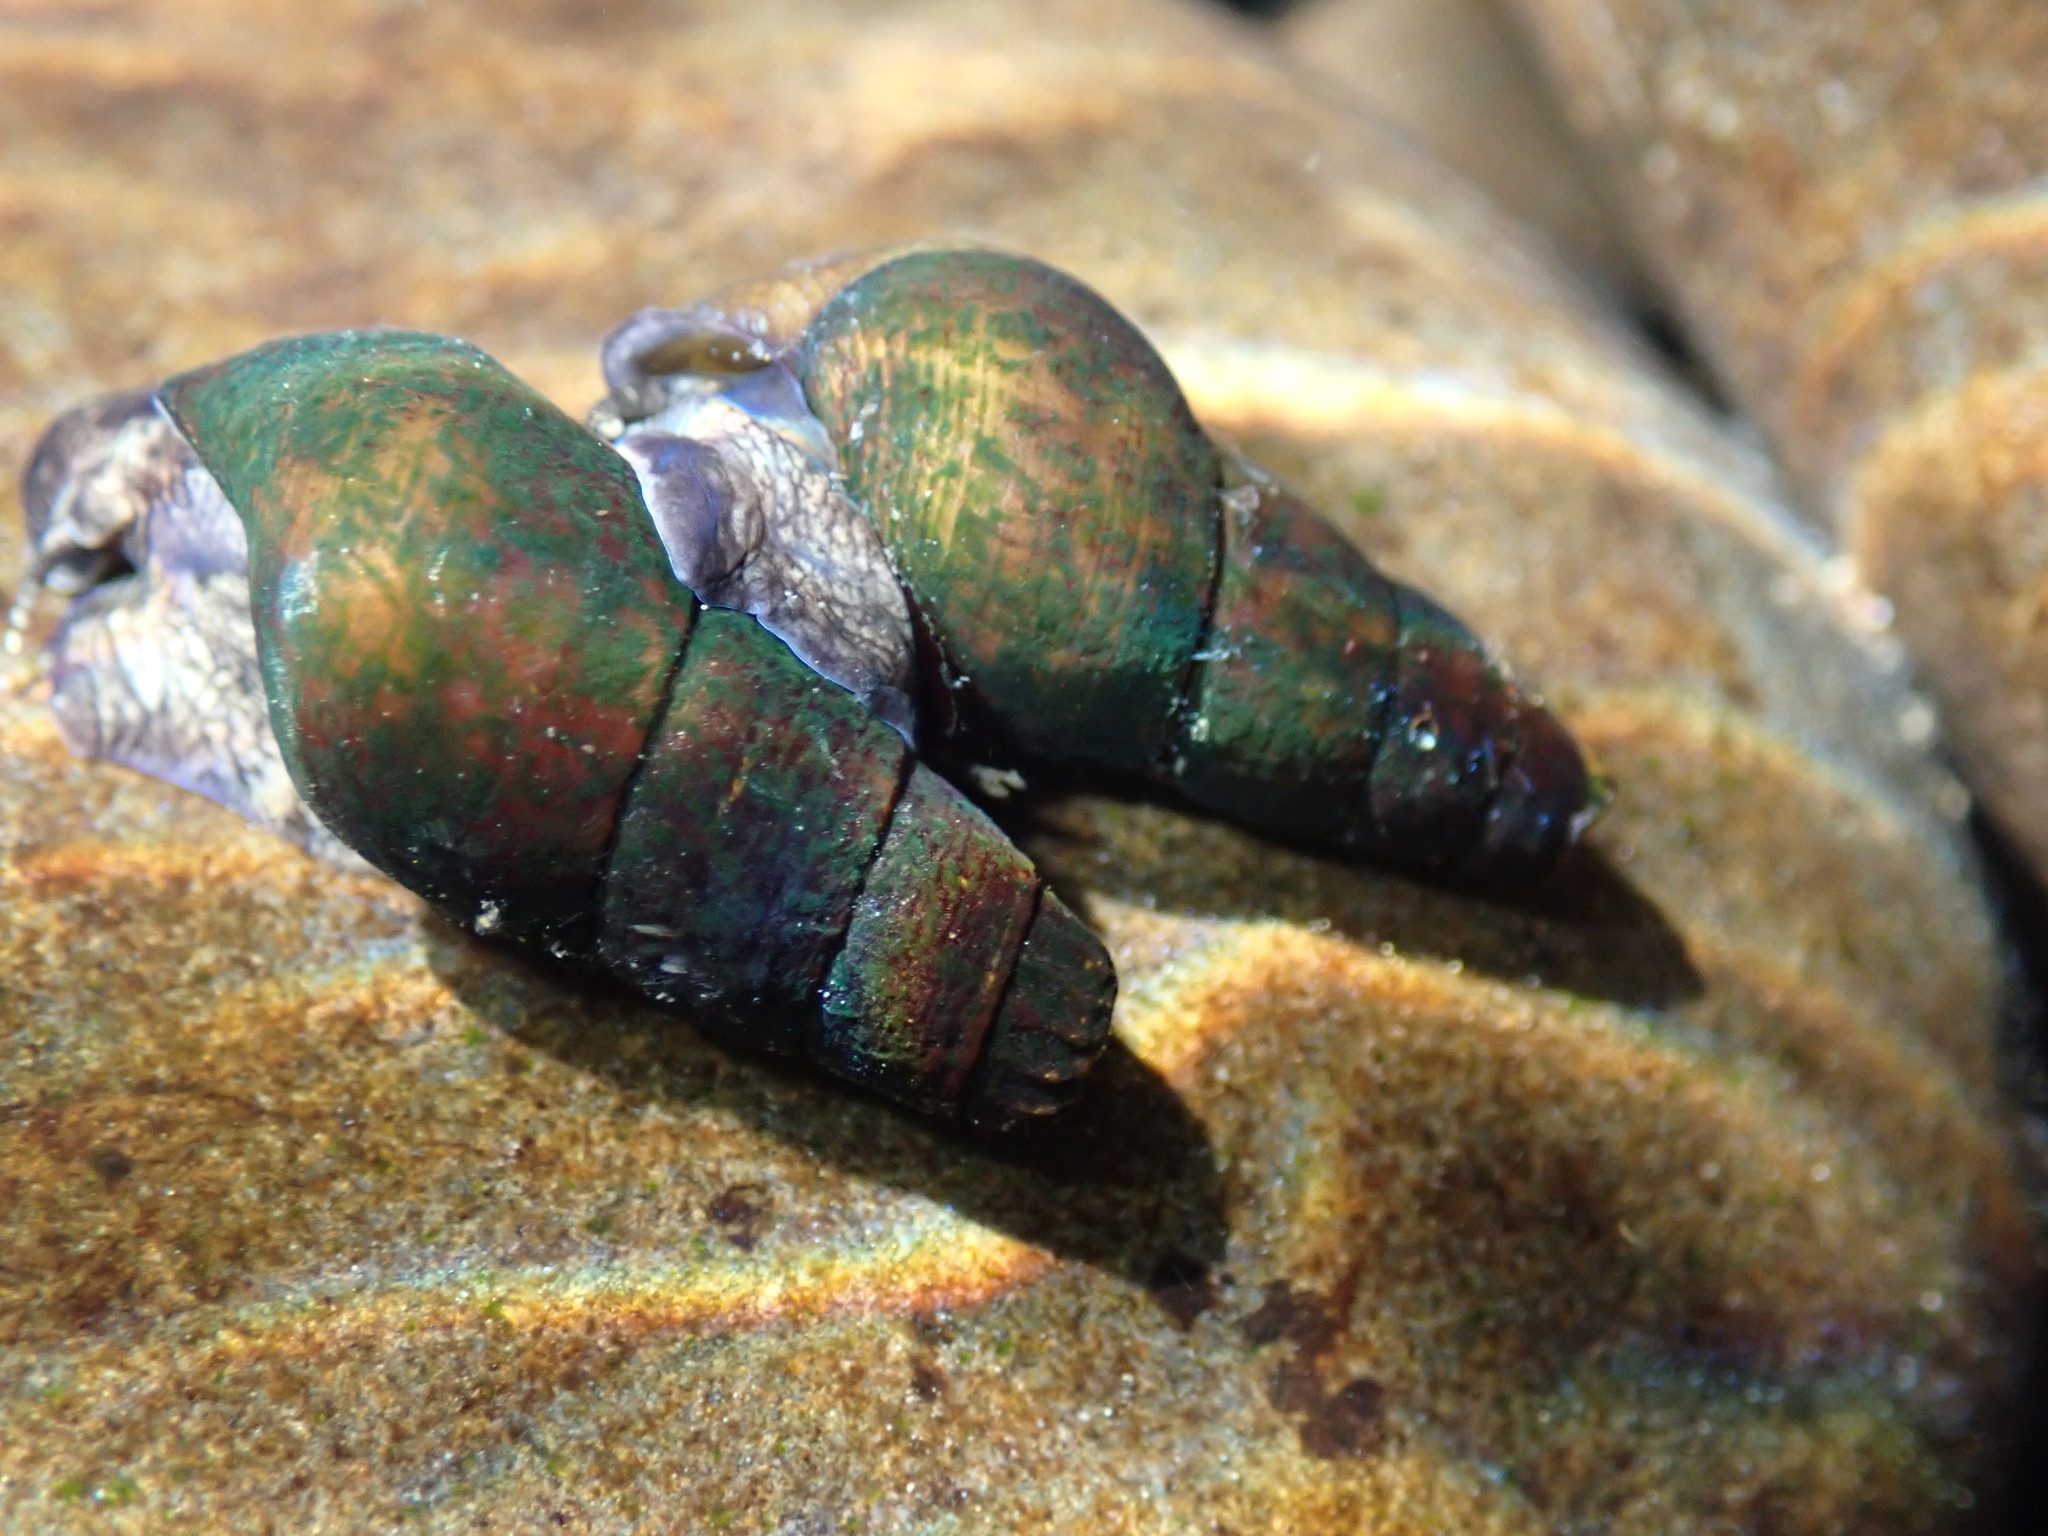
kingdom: Animalia
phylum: Mollusca
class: Gastropoda
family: Semisulcospiridae
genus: Juga
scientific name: Juga plicifera
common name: Pleated juga
